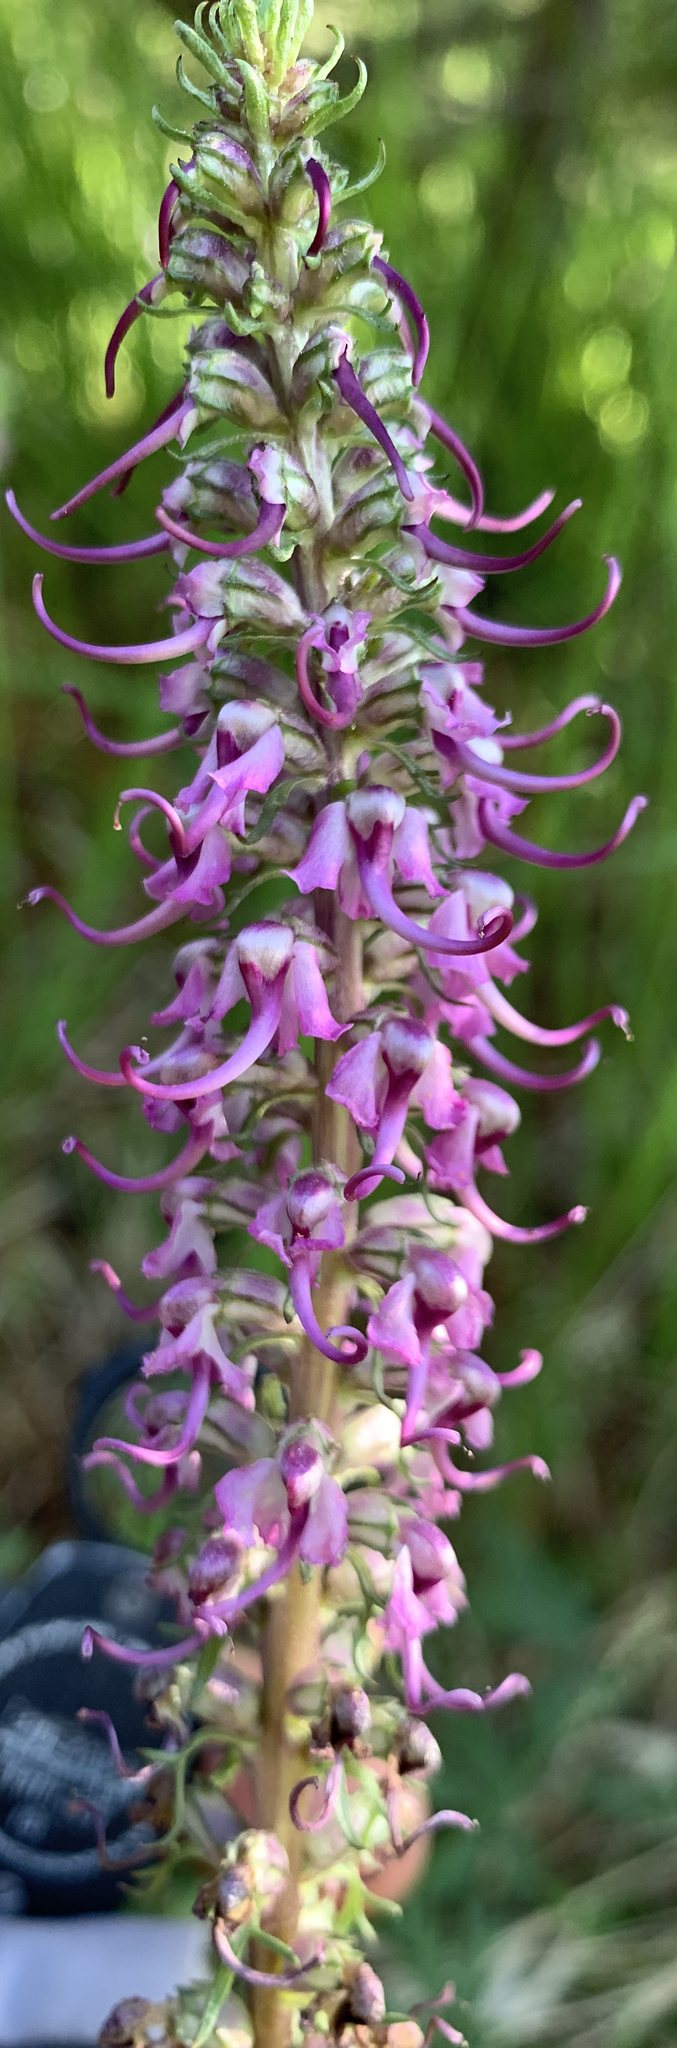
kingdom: Plantae
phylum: Tracheophyta
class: Magnoliopsida
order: Lamiales
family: Orobanchaceae
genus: Pedicularis
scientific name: Pedicularis groenlandica
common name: Elephant's-head
